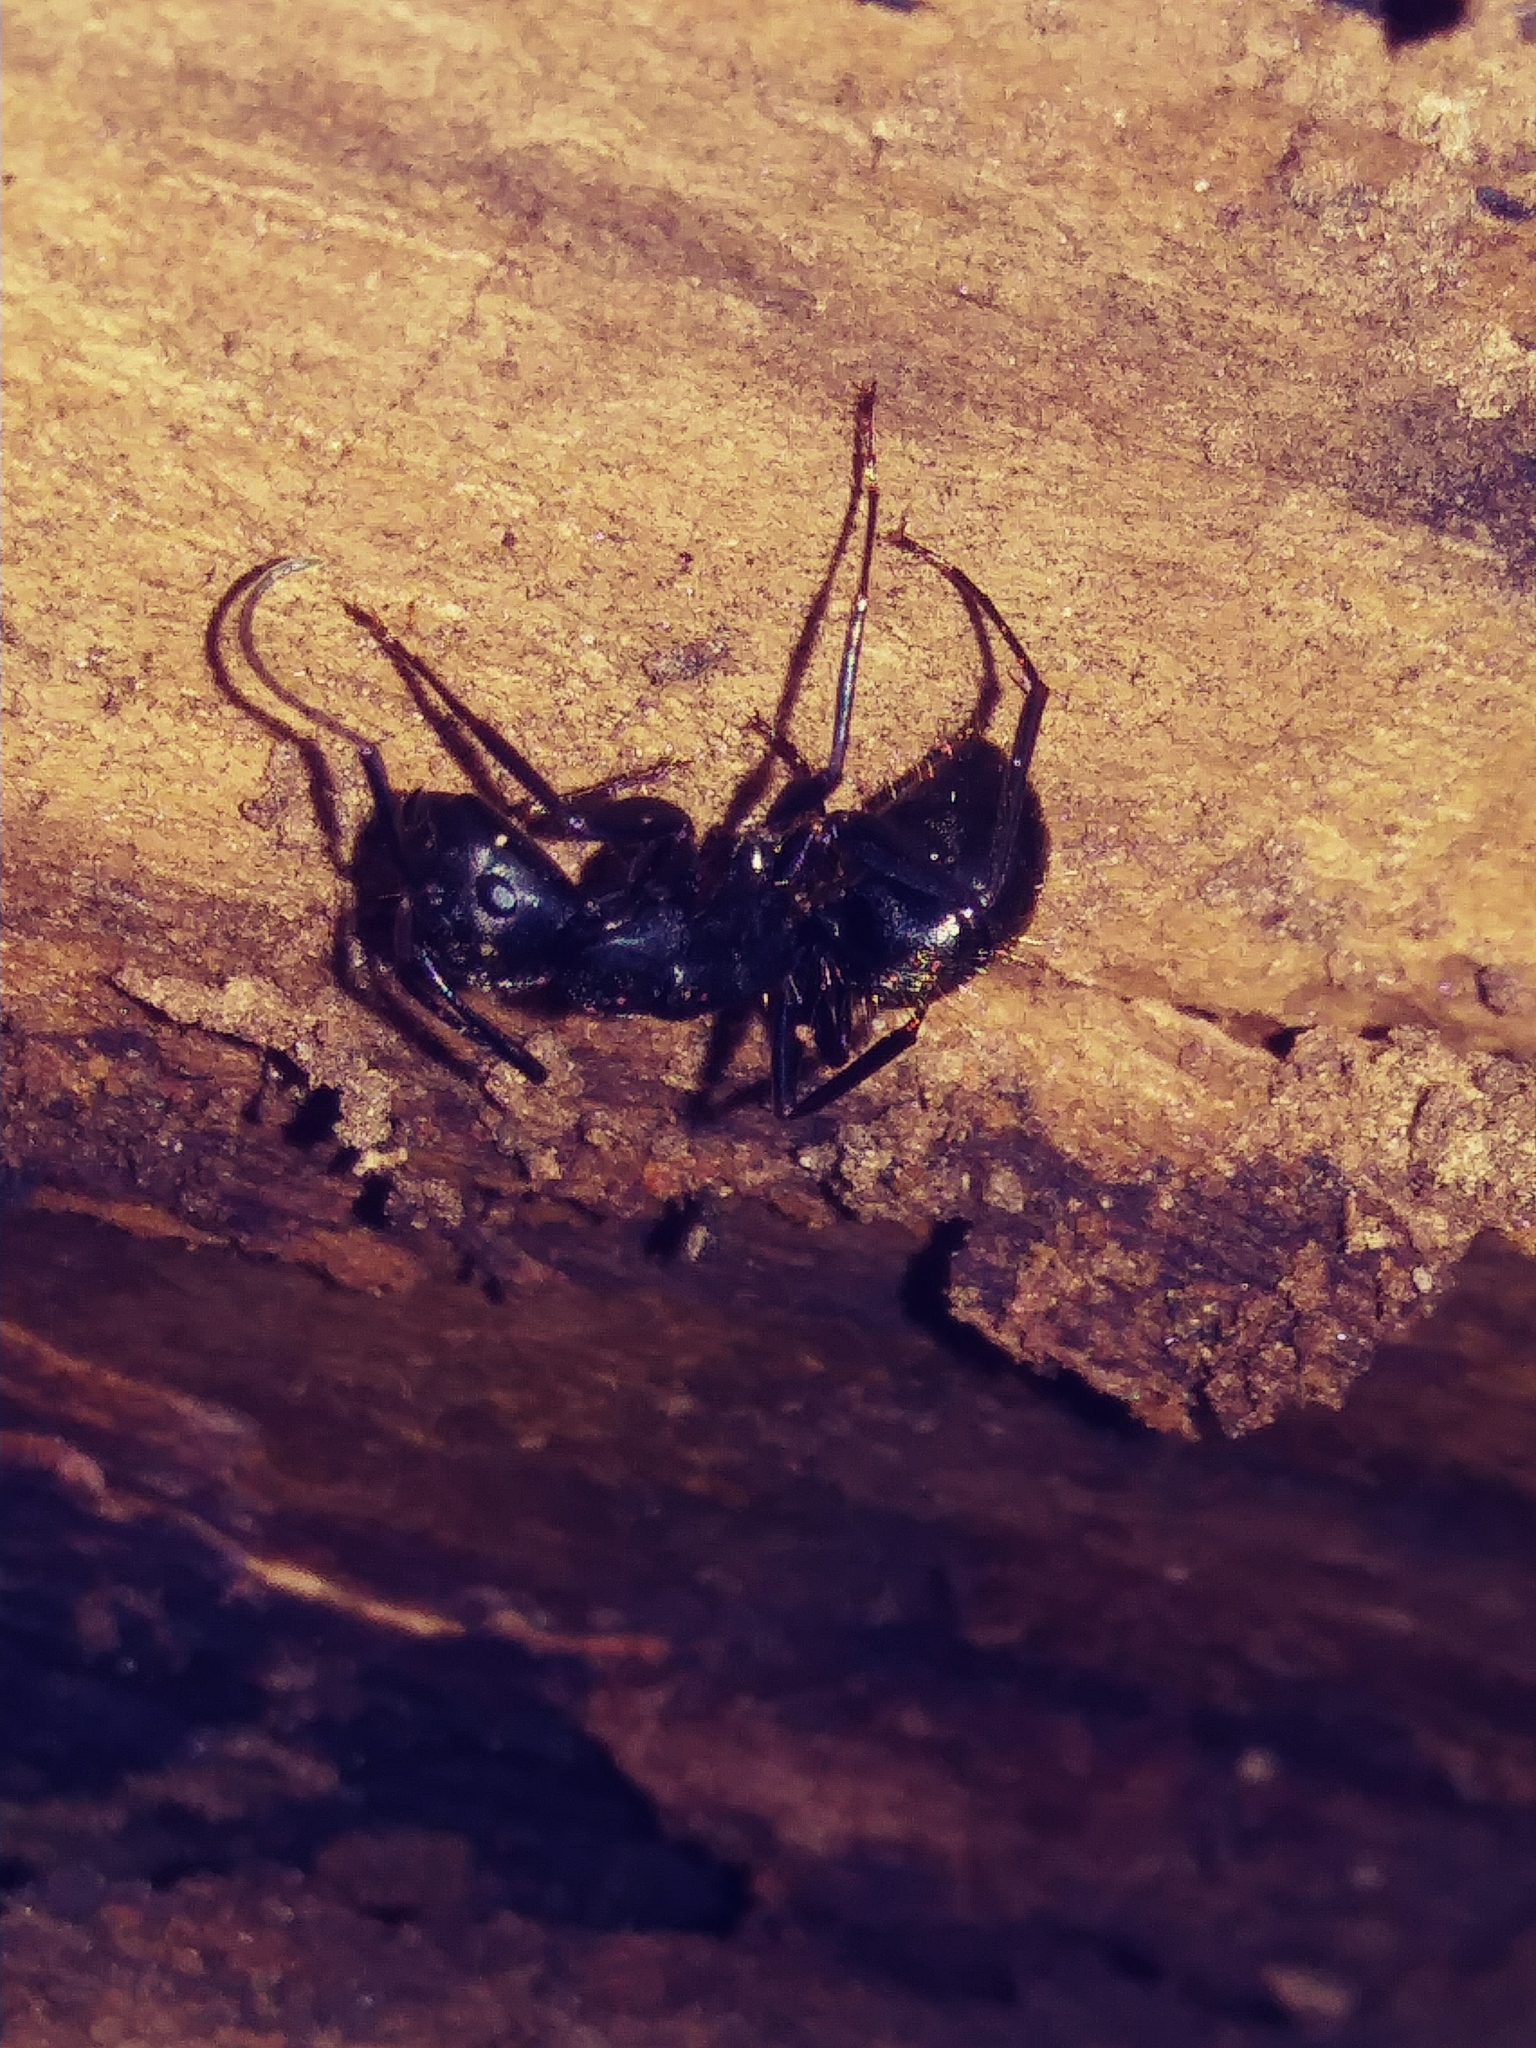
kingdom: Animalia
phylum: Arthropoda
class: Insecta
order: Hymenoptera
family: Formicidae
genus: Camponotus
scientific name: Camponotus pennsylvanicus
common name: Black carpenter ant
